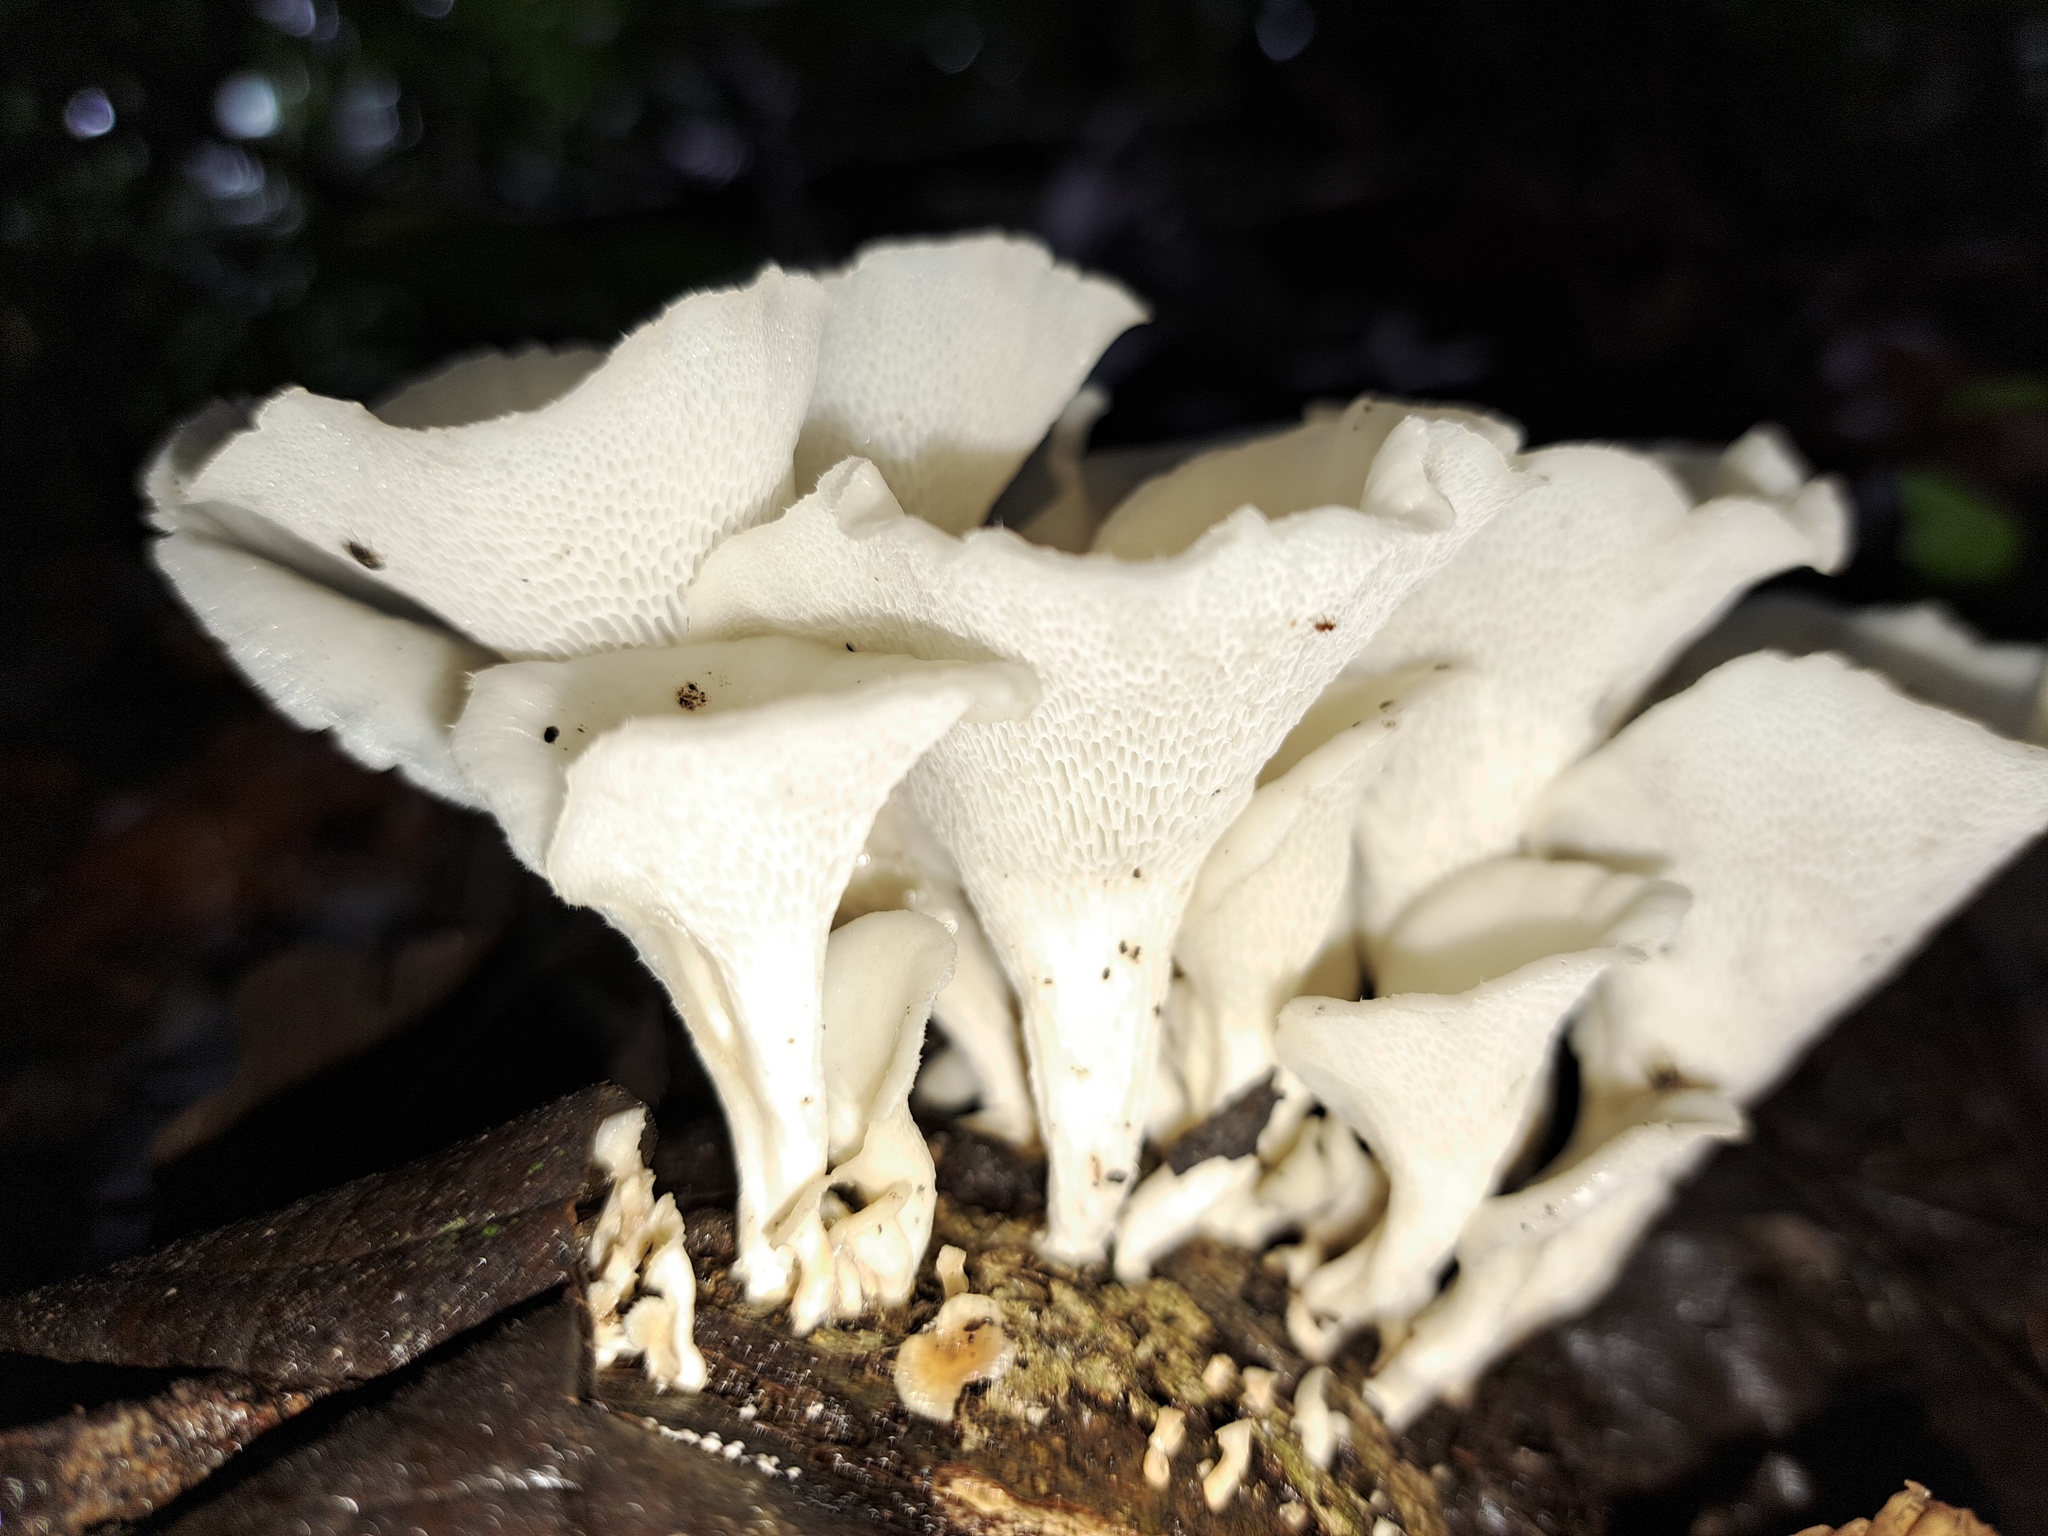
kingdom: Fungi
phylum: Basidiomycota
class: Agaricomycetes
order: Polyporales
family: Polyporaceae
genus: Favolus
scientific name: Favolus tenuiculus
